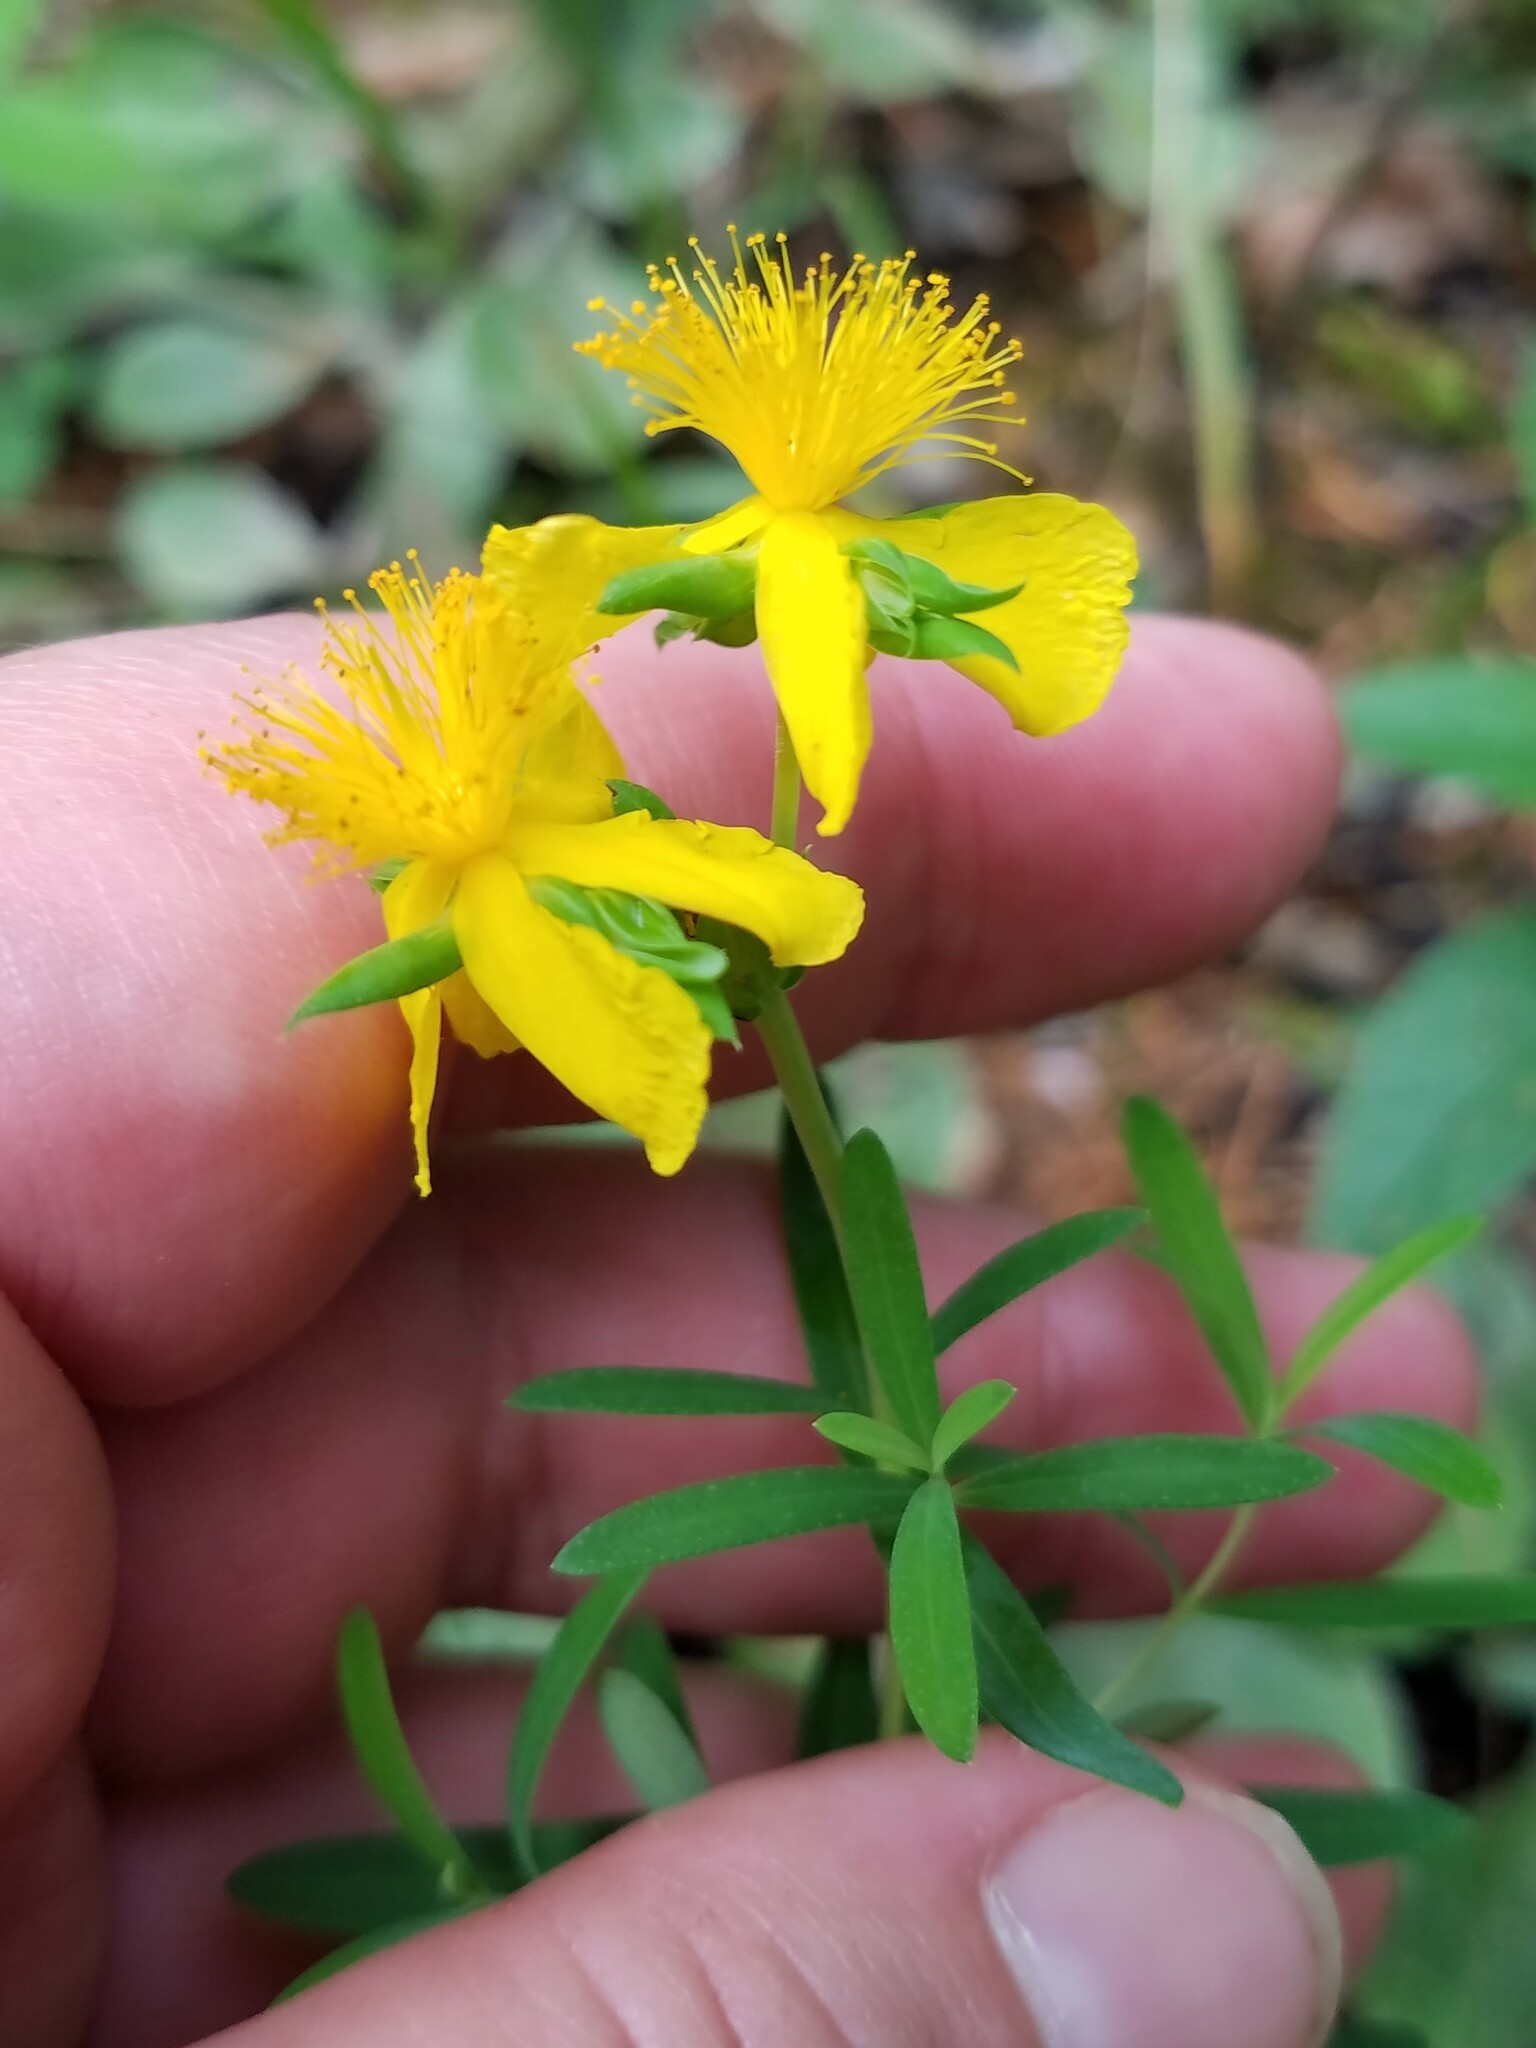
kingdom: Plantae
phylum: Tracheophyta
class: Magnoliopsida
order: Malpighiales
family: Hypericaceae
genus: Hypericum
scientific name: Hypericum dolabriforme
